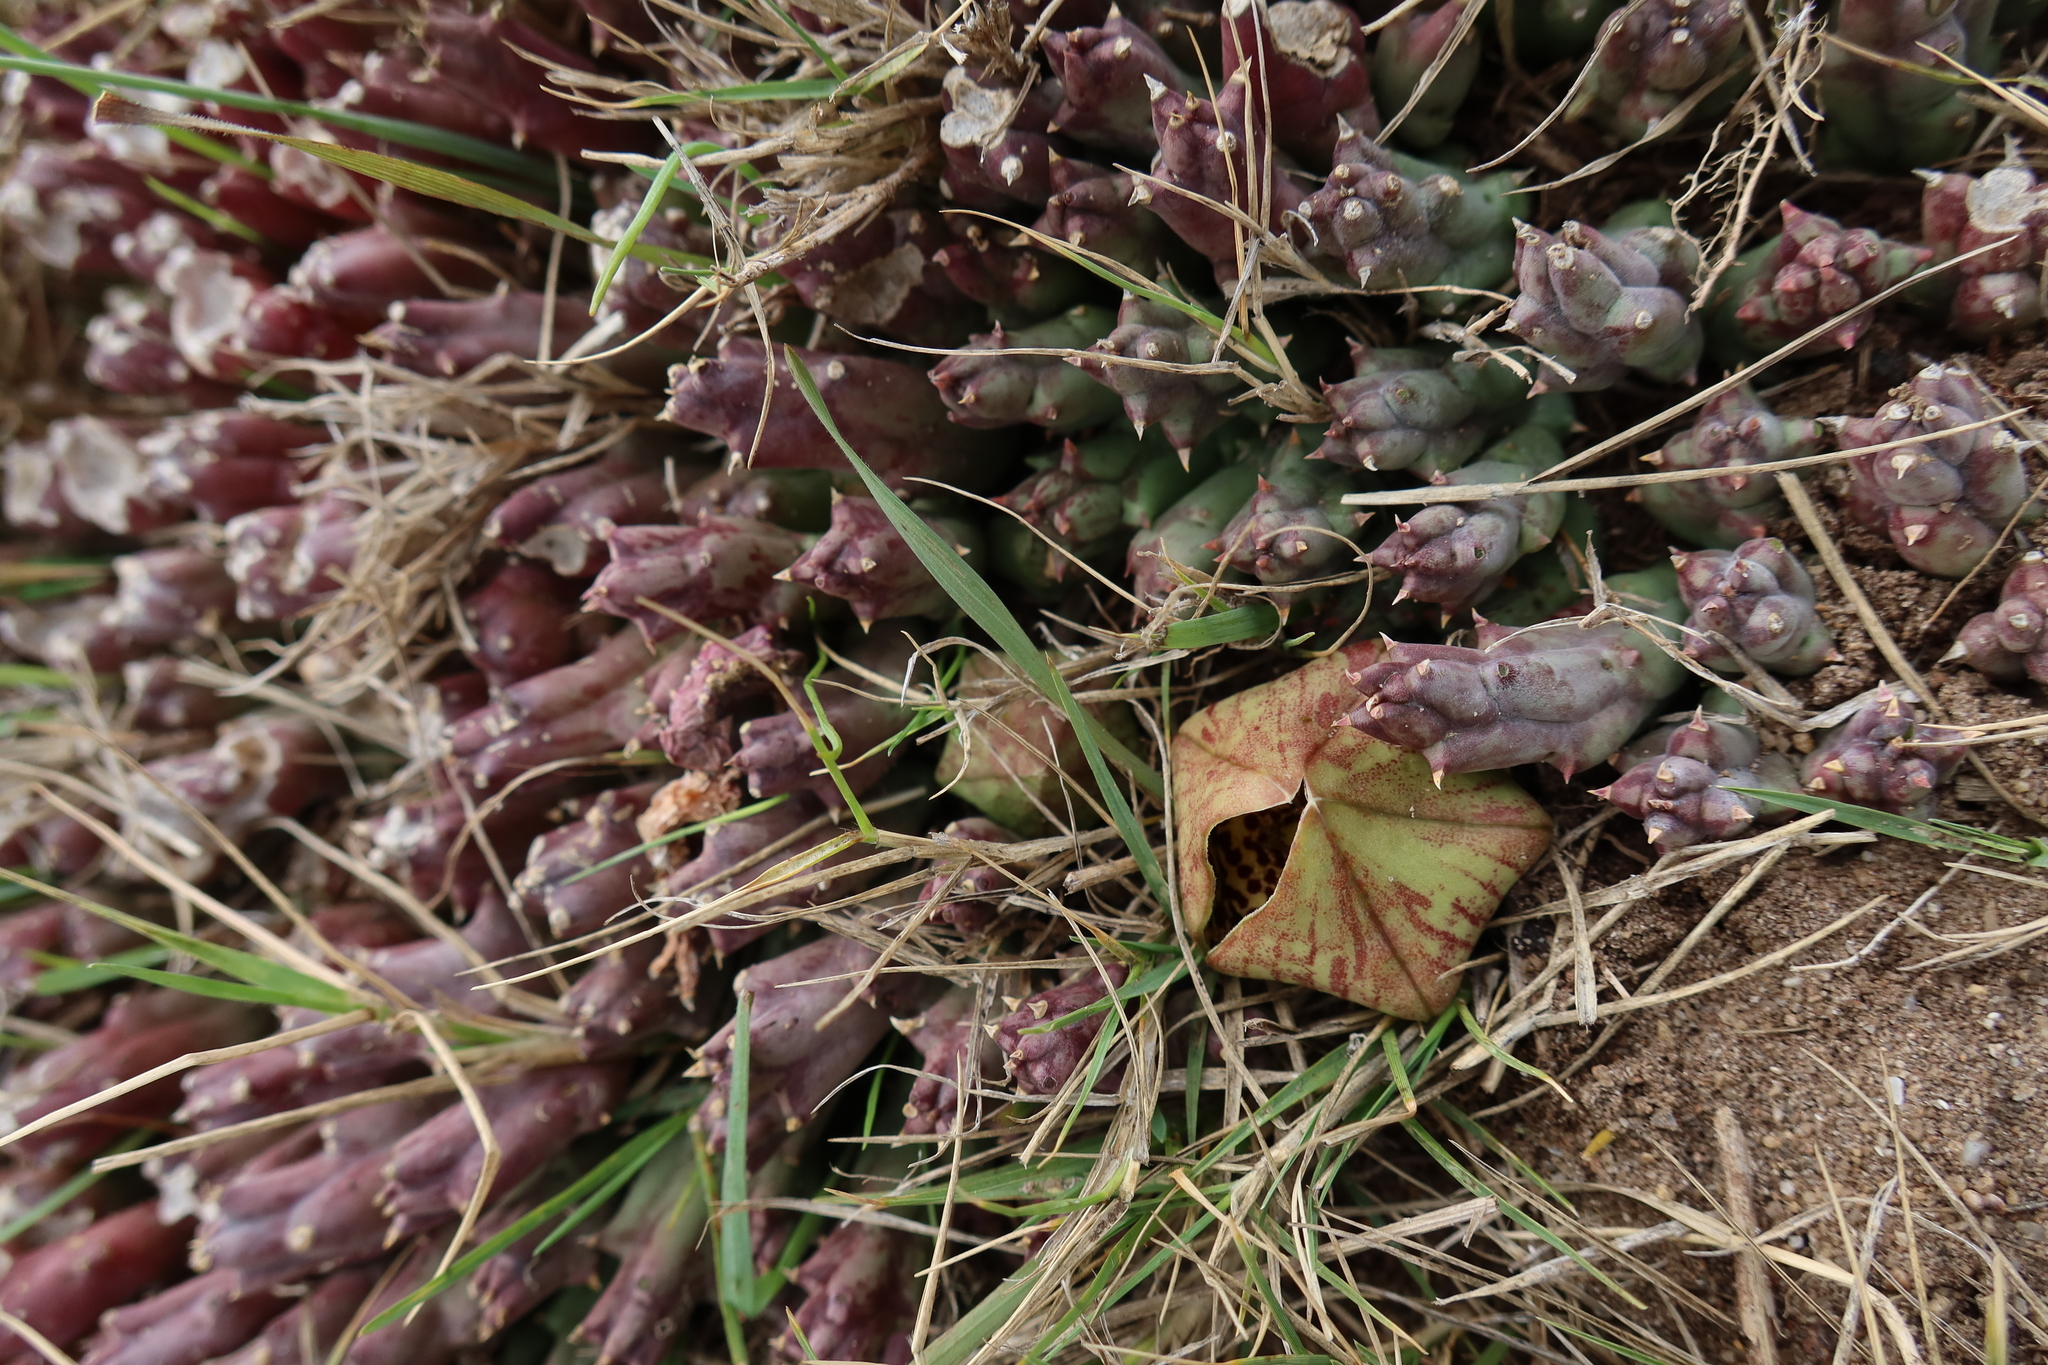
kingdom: Plantae
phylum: Tracheophyta
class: Magnoliopsida
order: Gentianales
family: Apocynaceae
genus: Ceropegia
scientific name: Ceropegia mixta
